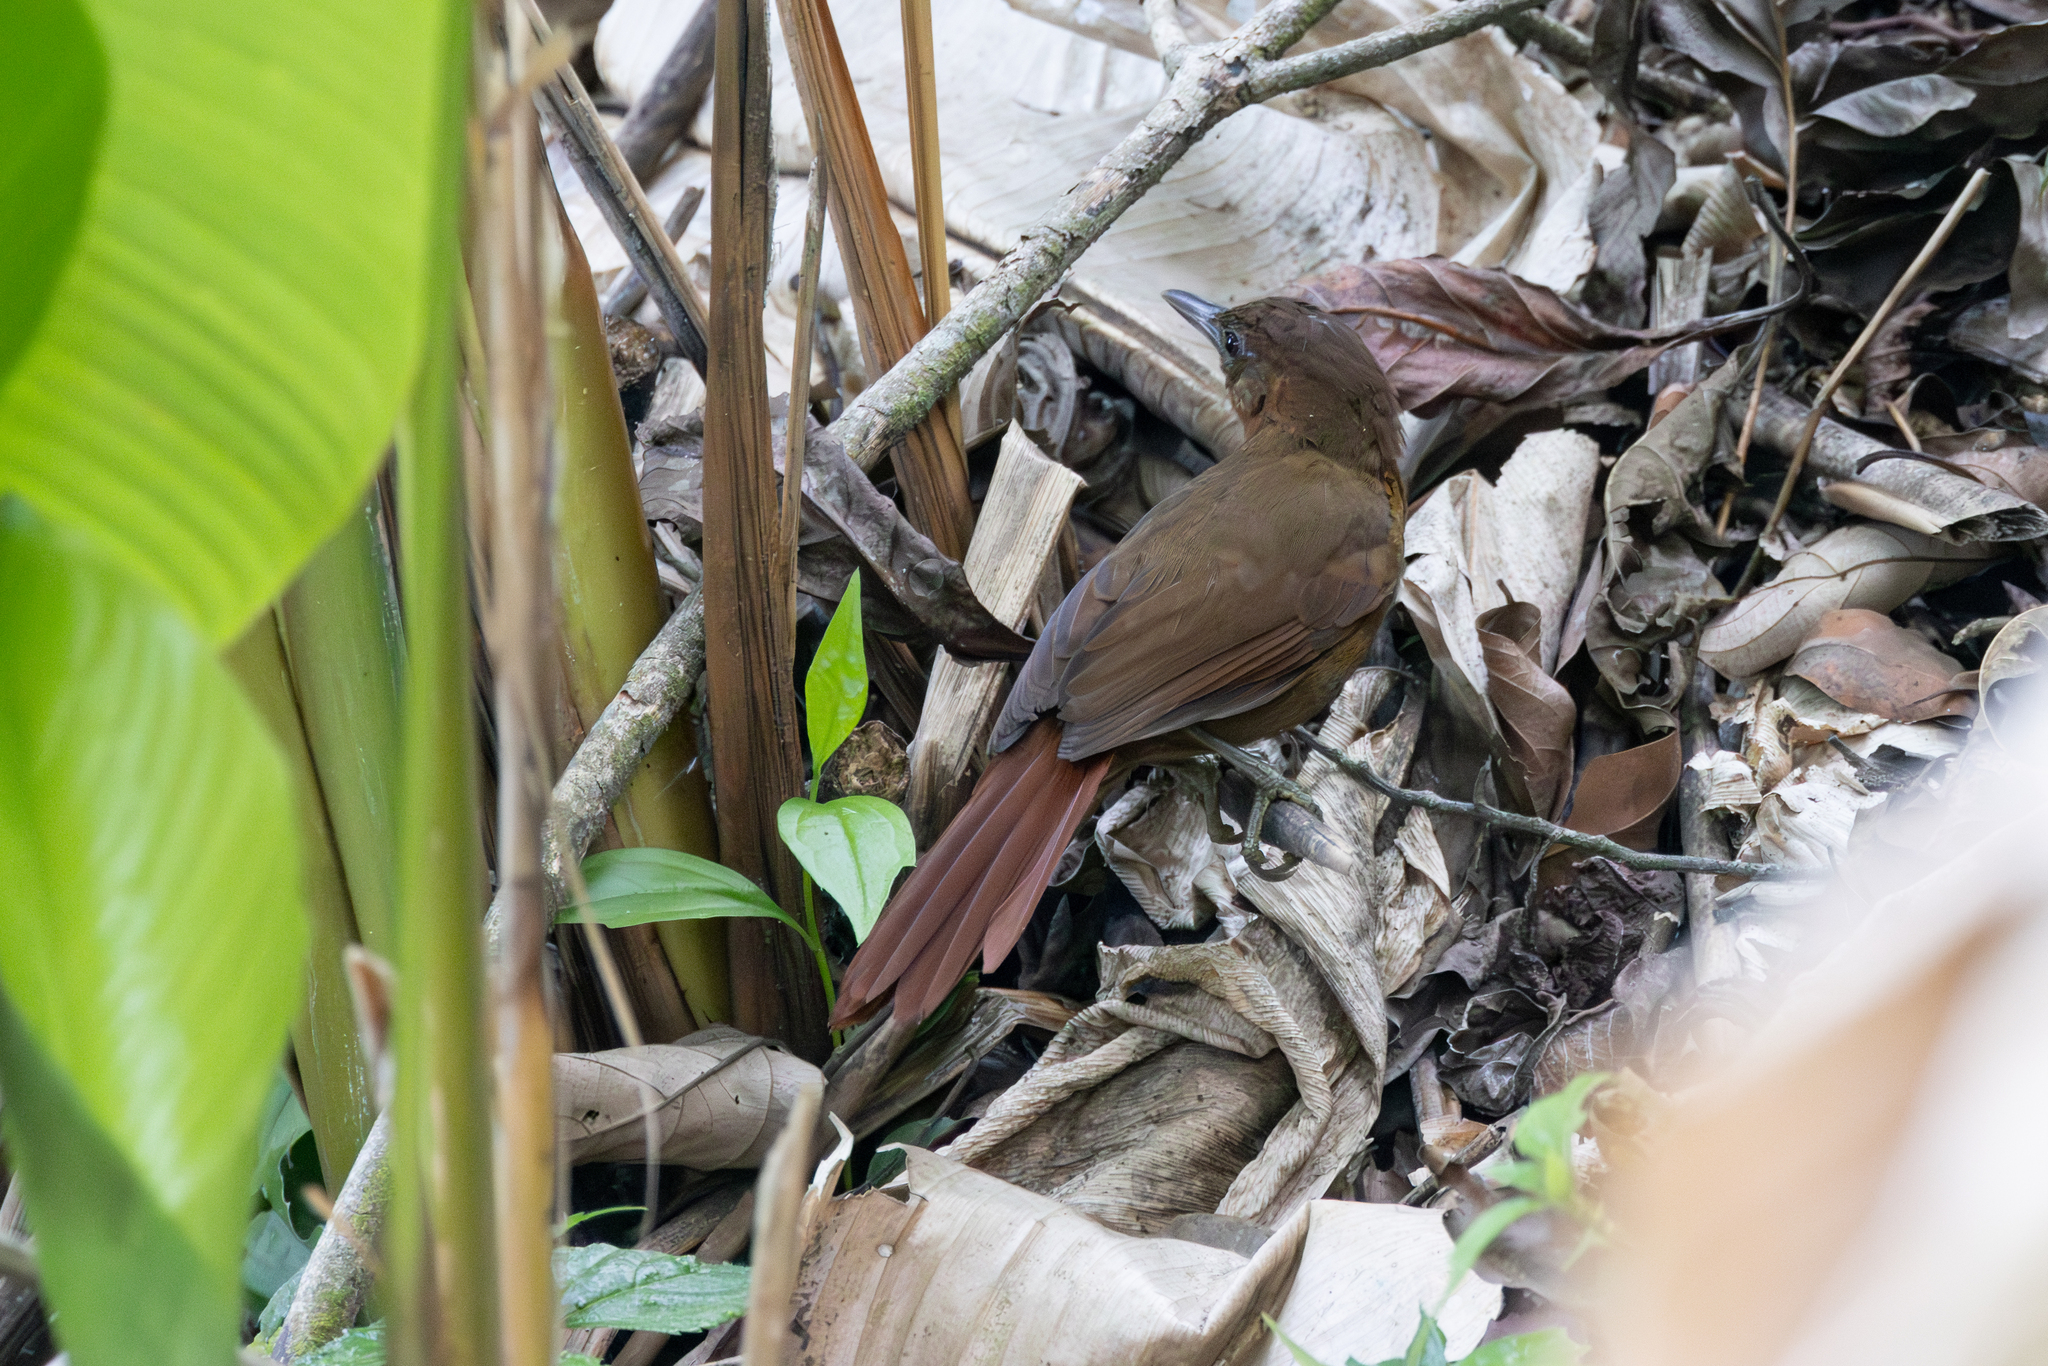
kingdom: Animalia
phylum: Chordata
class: Aves
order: Passeriformes
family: Furnariidae
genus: Automolus
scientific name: Automolus rubiginosus
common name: Ruddy foliage-gleaner
